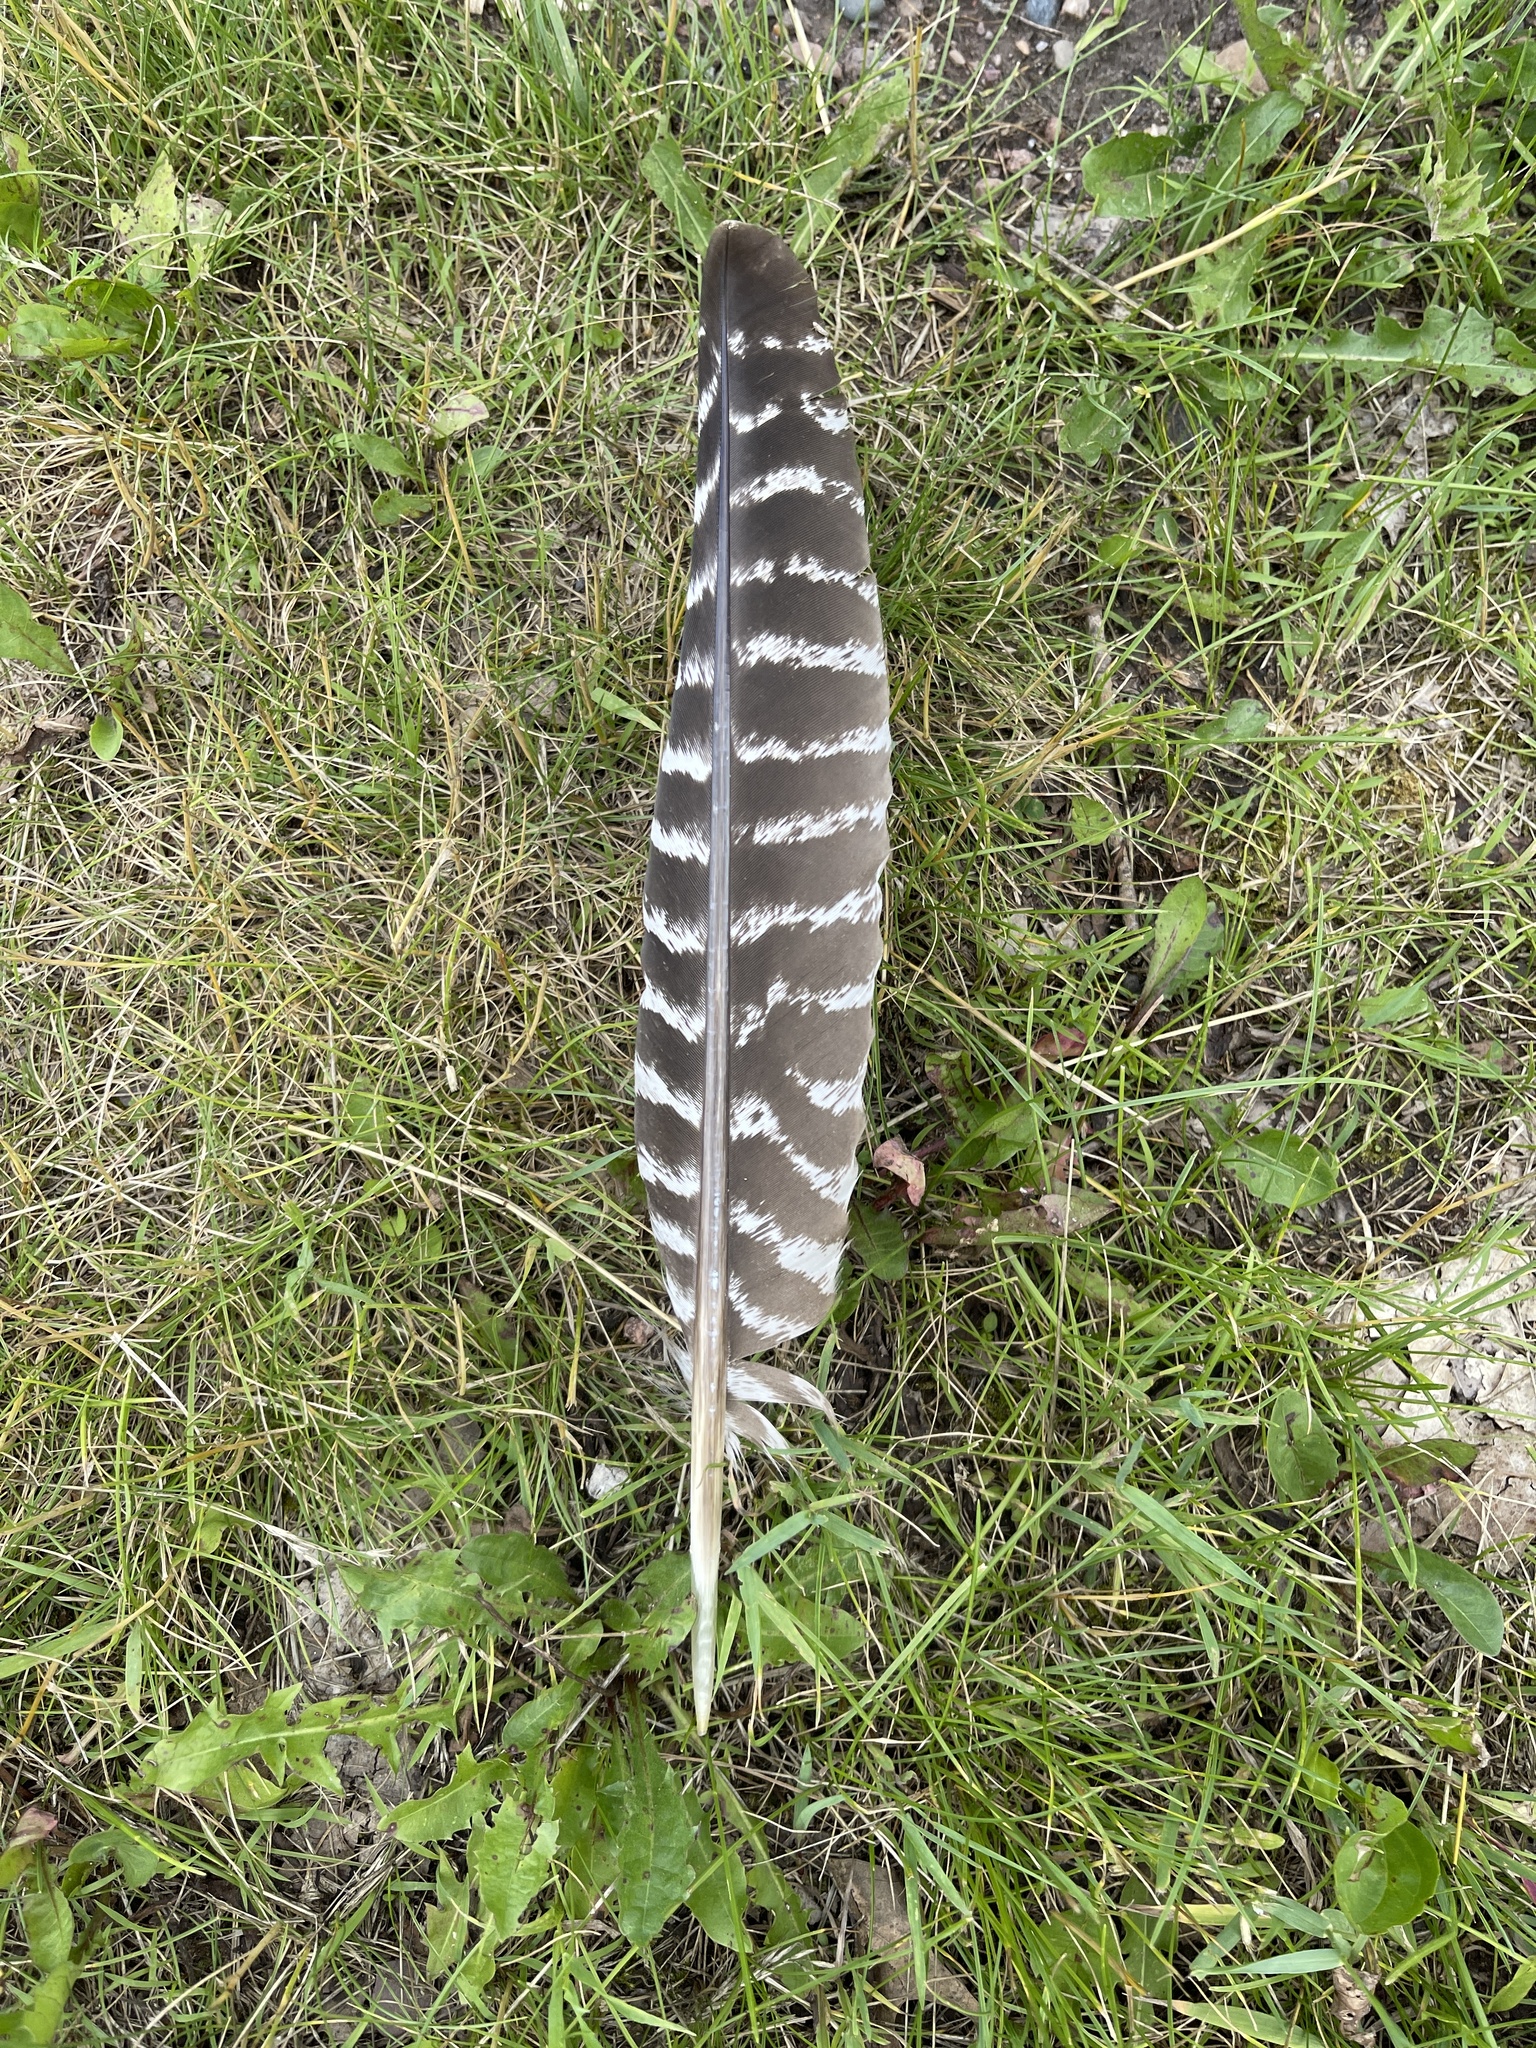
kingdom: Animalia
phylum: Chordata
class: Aves
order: Galliformes
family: Phasianidae
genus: Meleagris
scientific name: Meleagris gallopavo
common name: Wild turkey
